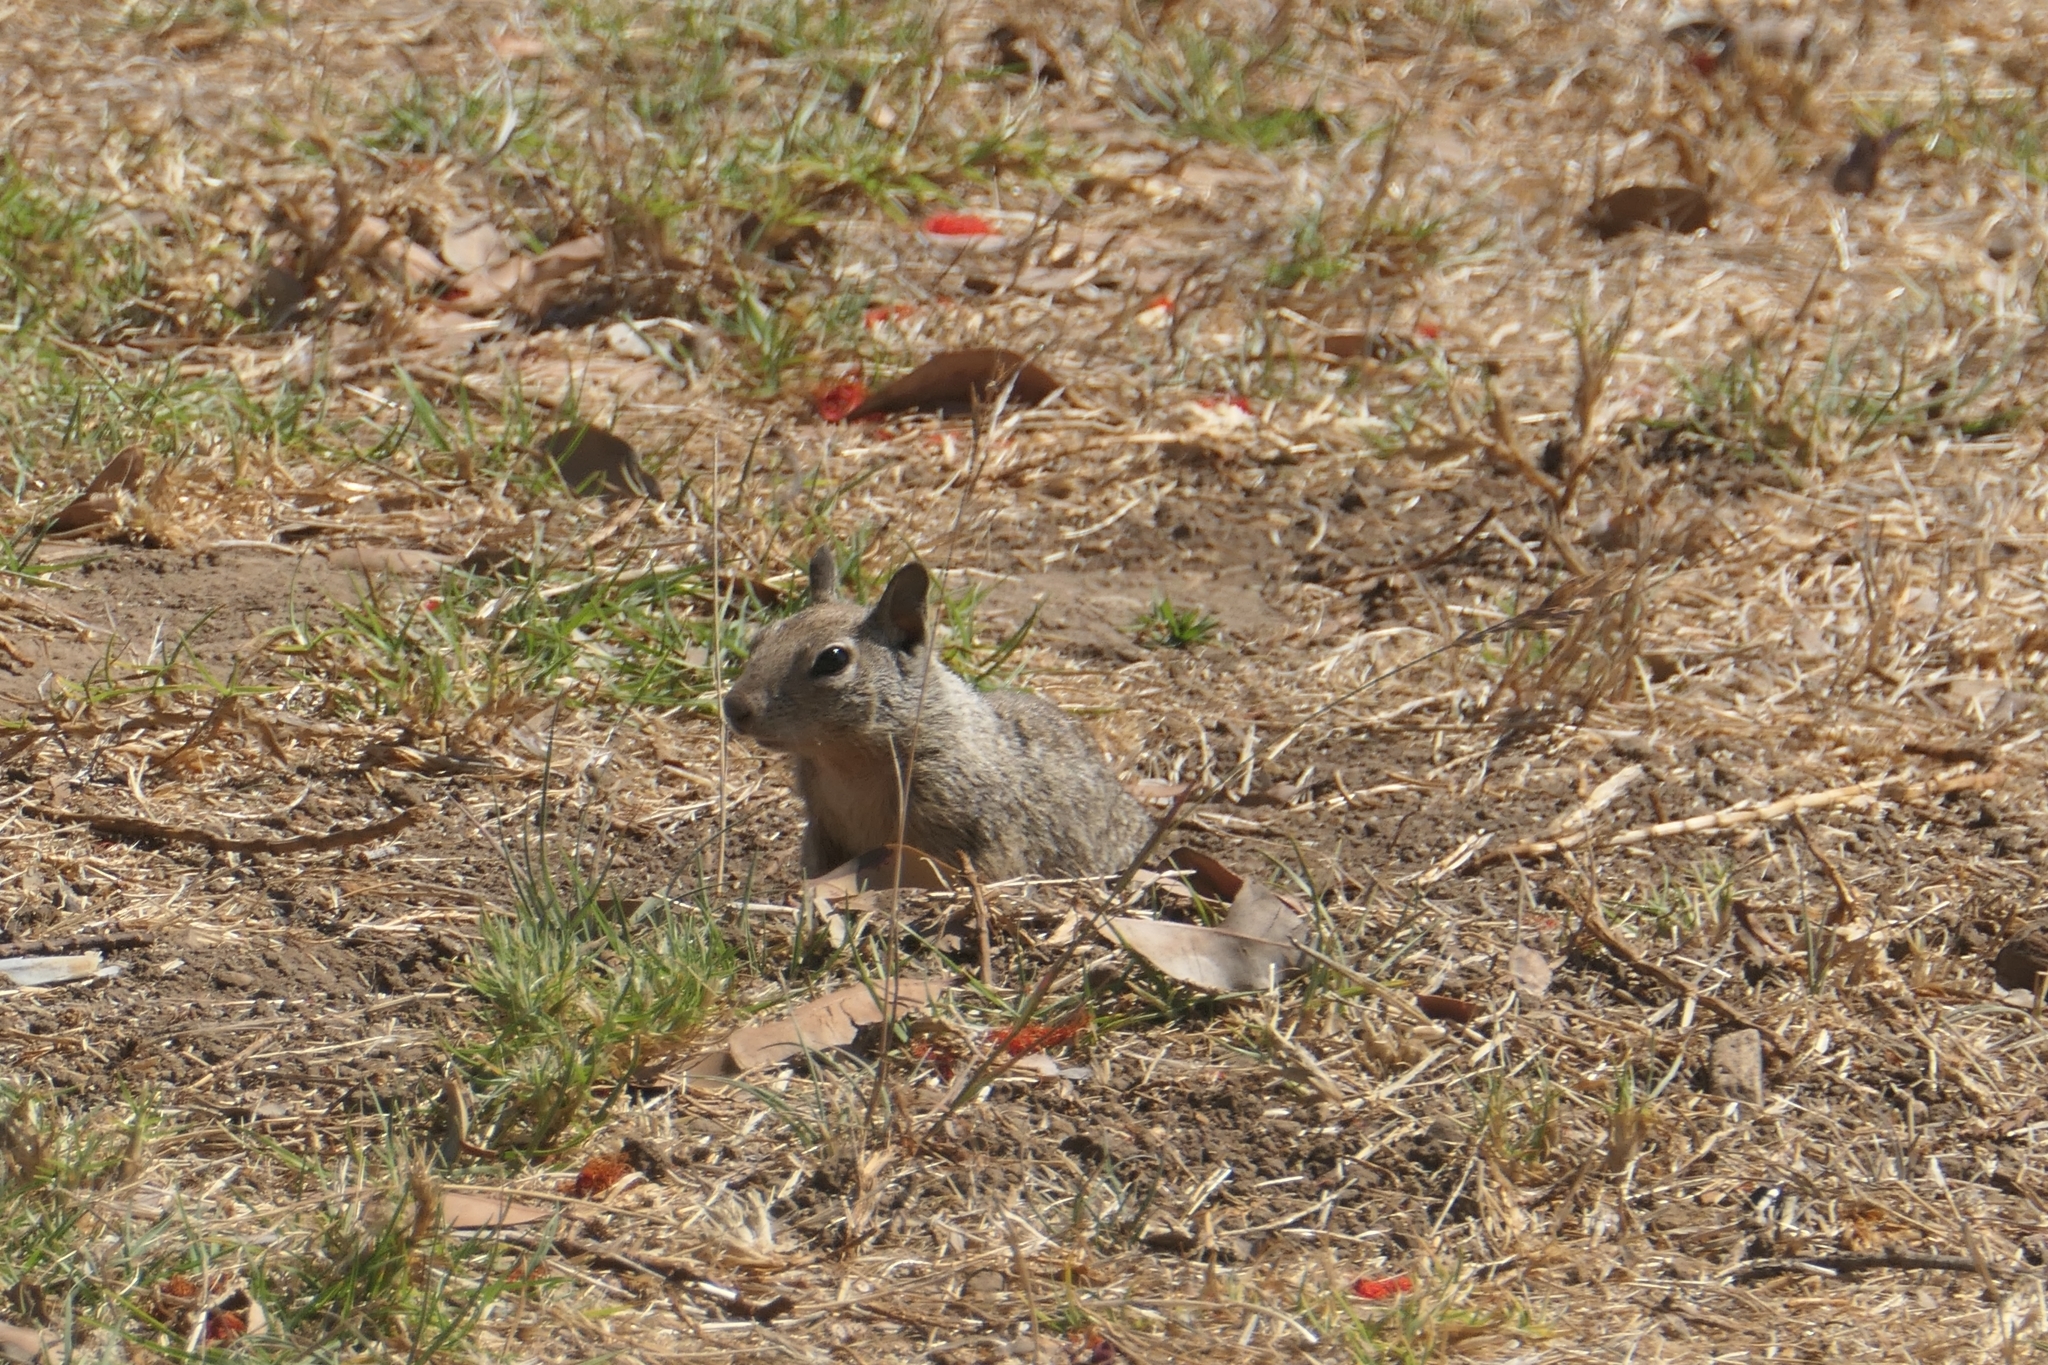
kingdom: Animalia
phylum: Chordata
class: Mammalia
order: Rodentia
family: Sciuridae
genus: Otospermophilus
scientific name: Otospermophilus beecheyi
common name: California ground squirrel
